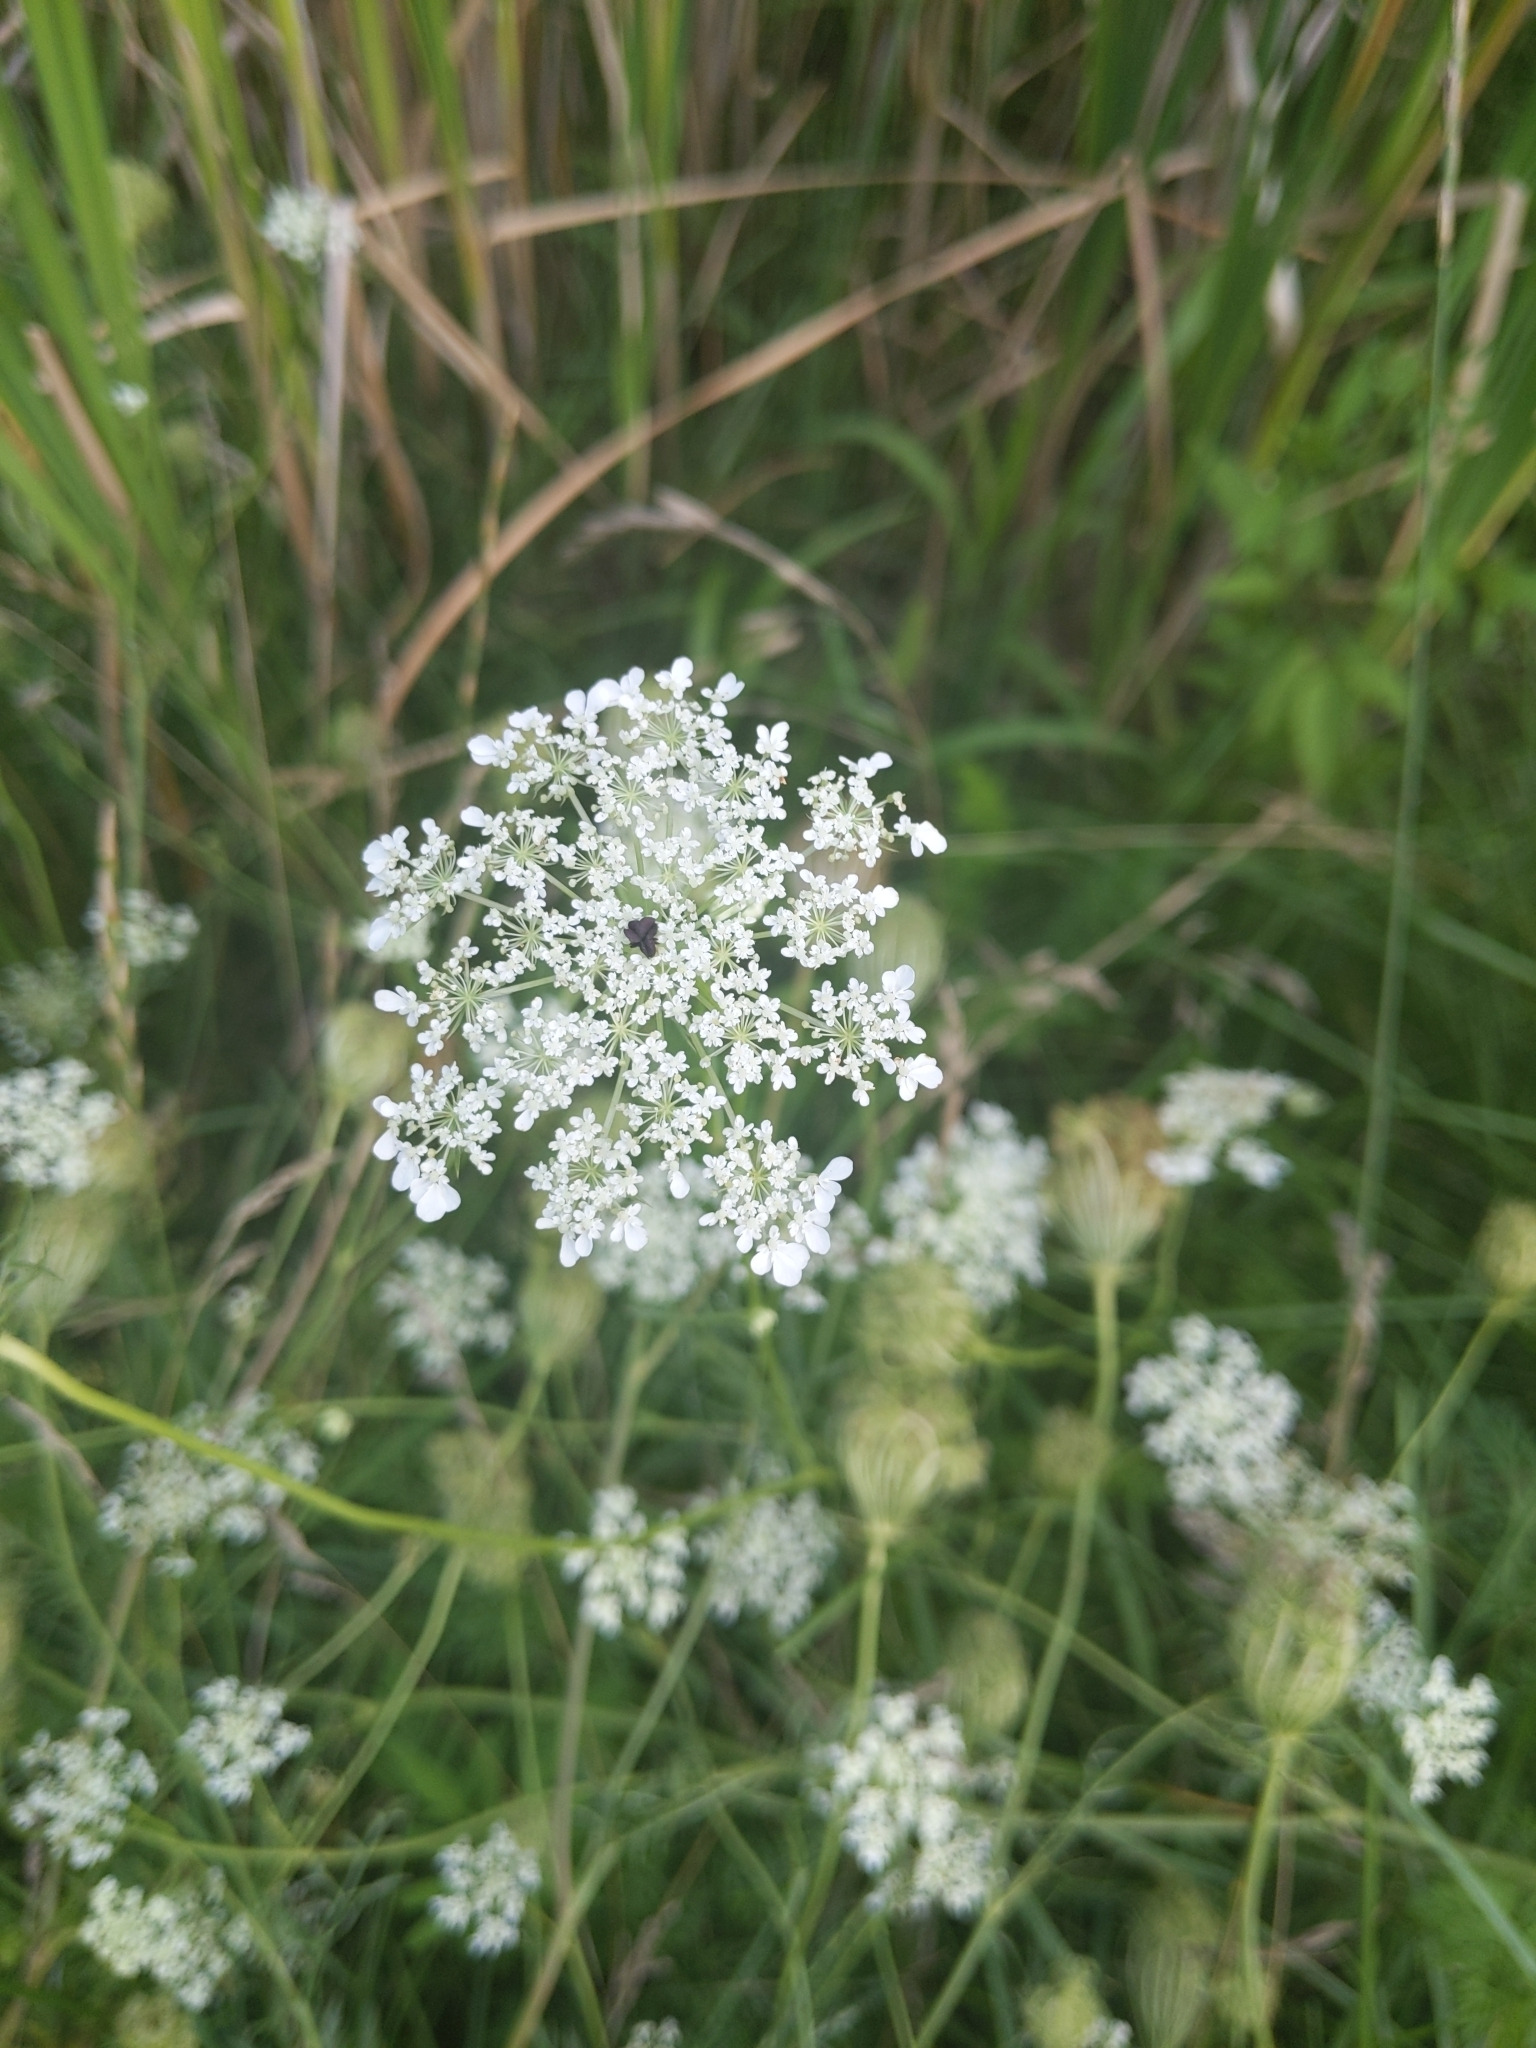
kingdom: Plantae
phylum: Tracheophyta
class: Magnoliopsida
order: Apiales
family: Apiaceae
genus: Daucus
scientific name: Daucus carota
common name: Wild carrot
